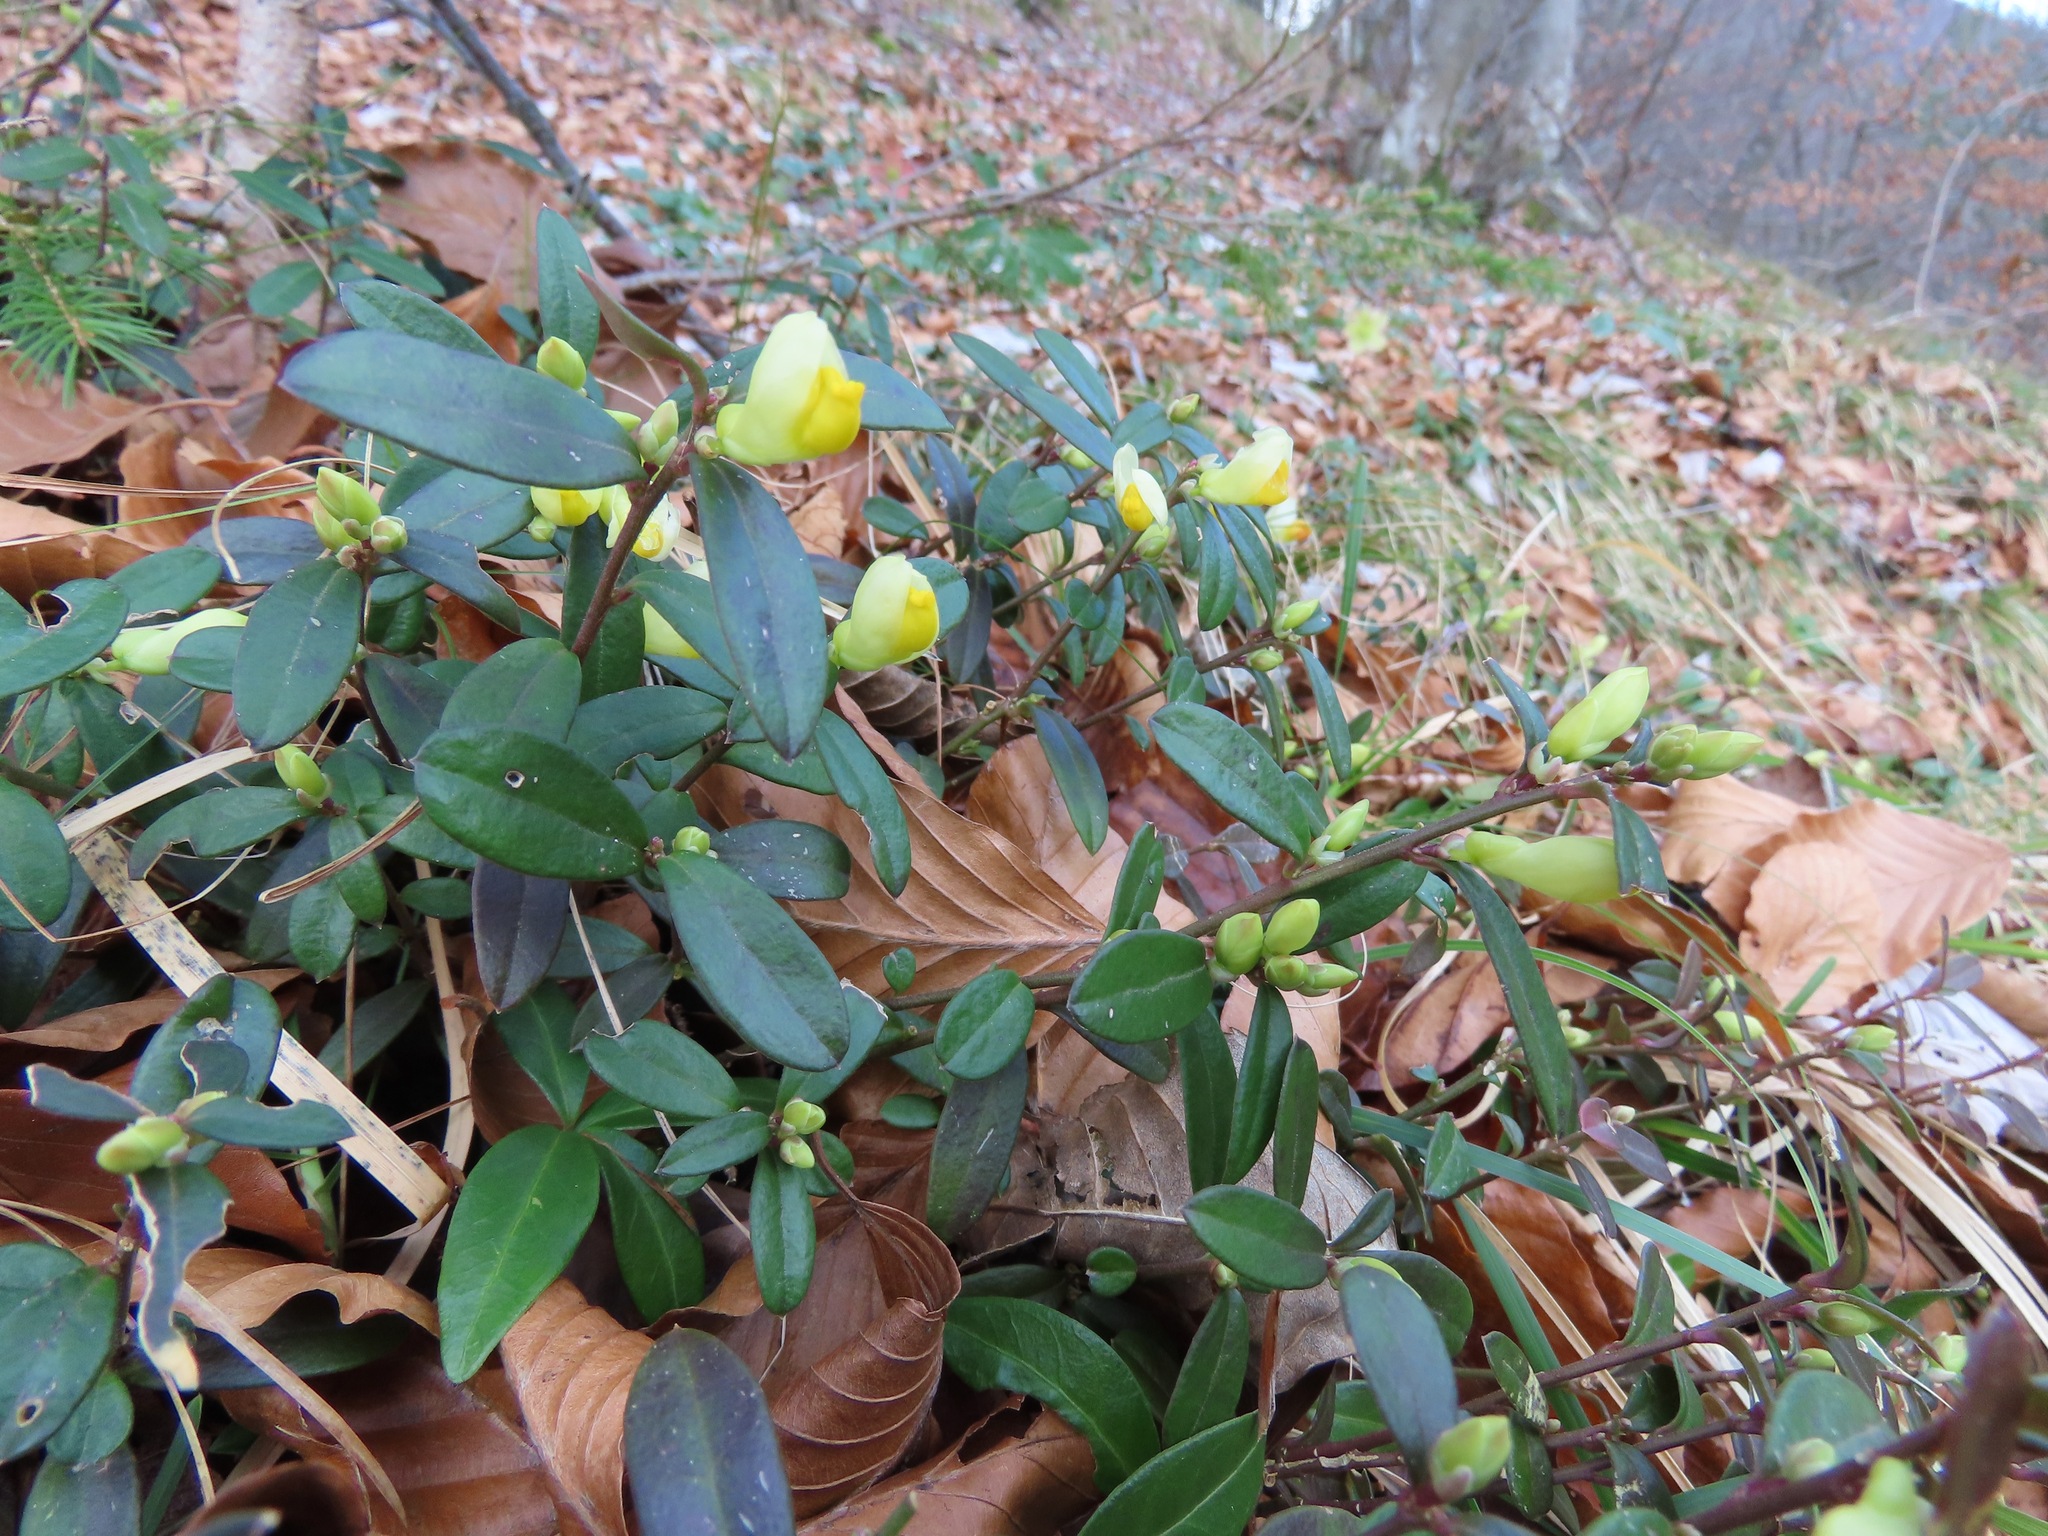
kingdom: Plantae
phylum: Tracheophyta
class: Magnoliopsida
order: Fabales
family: Polygalaceae
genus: Polygaloides
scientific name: Polygaloides chamaebuxus
